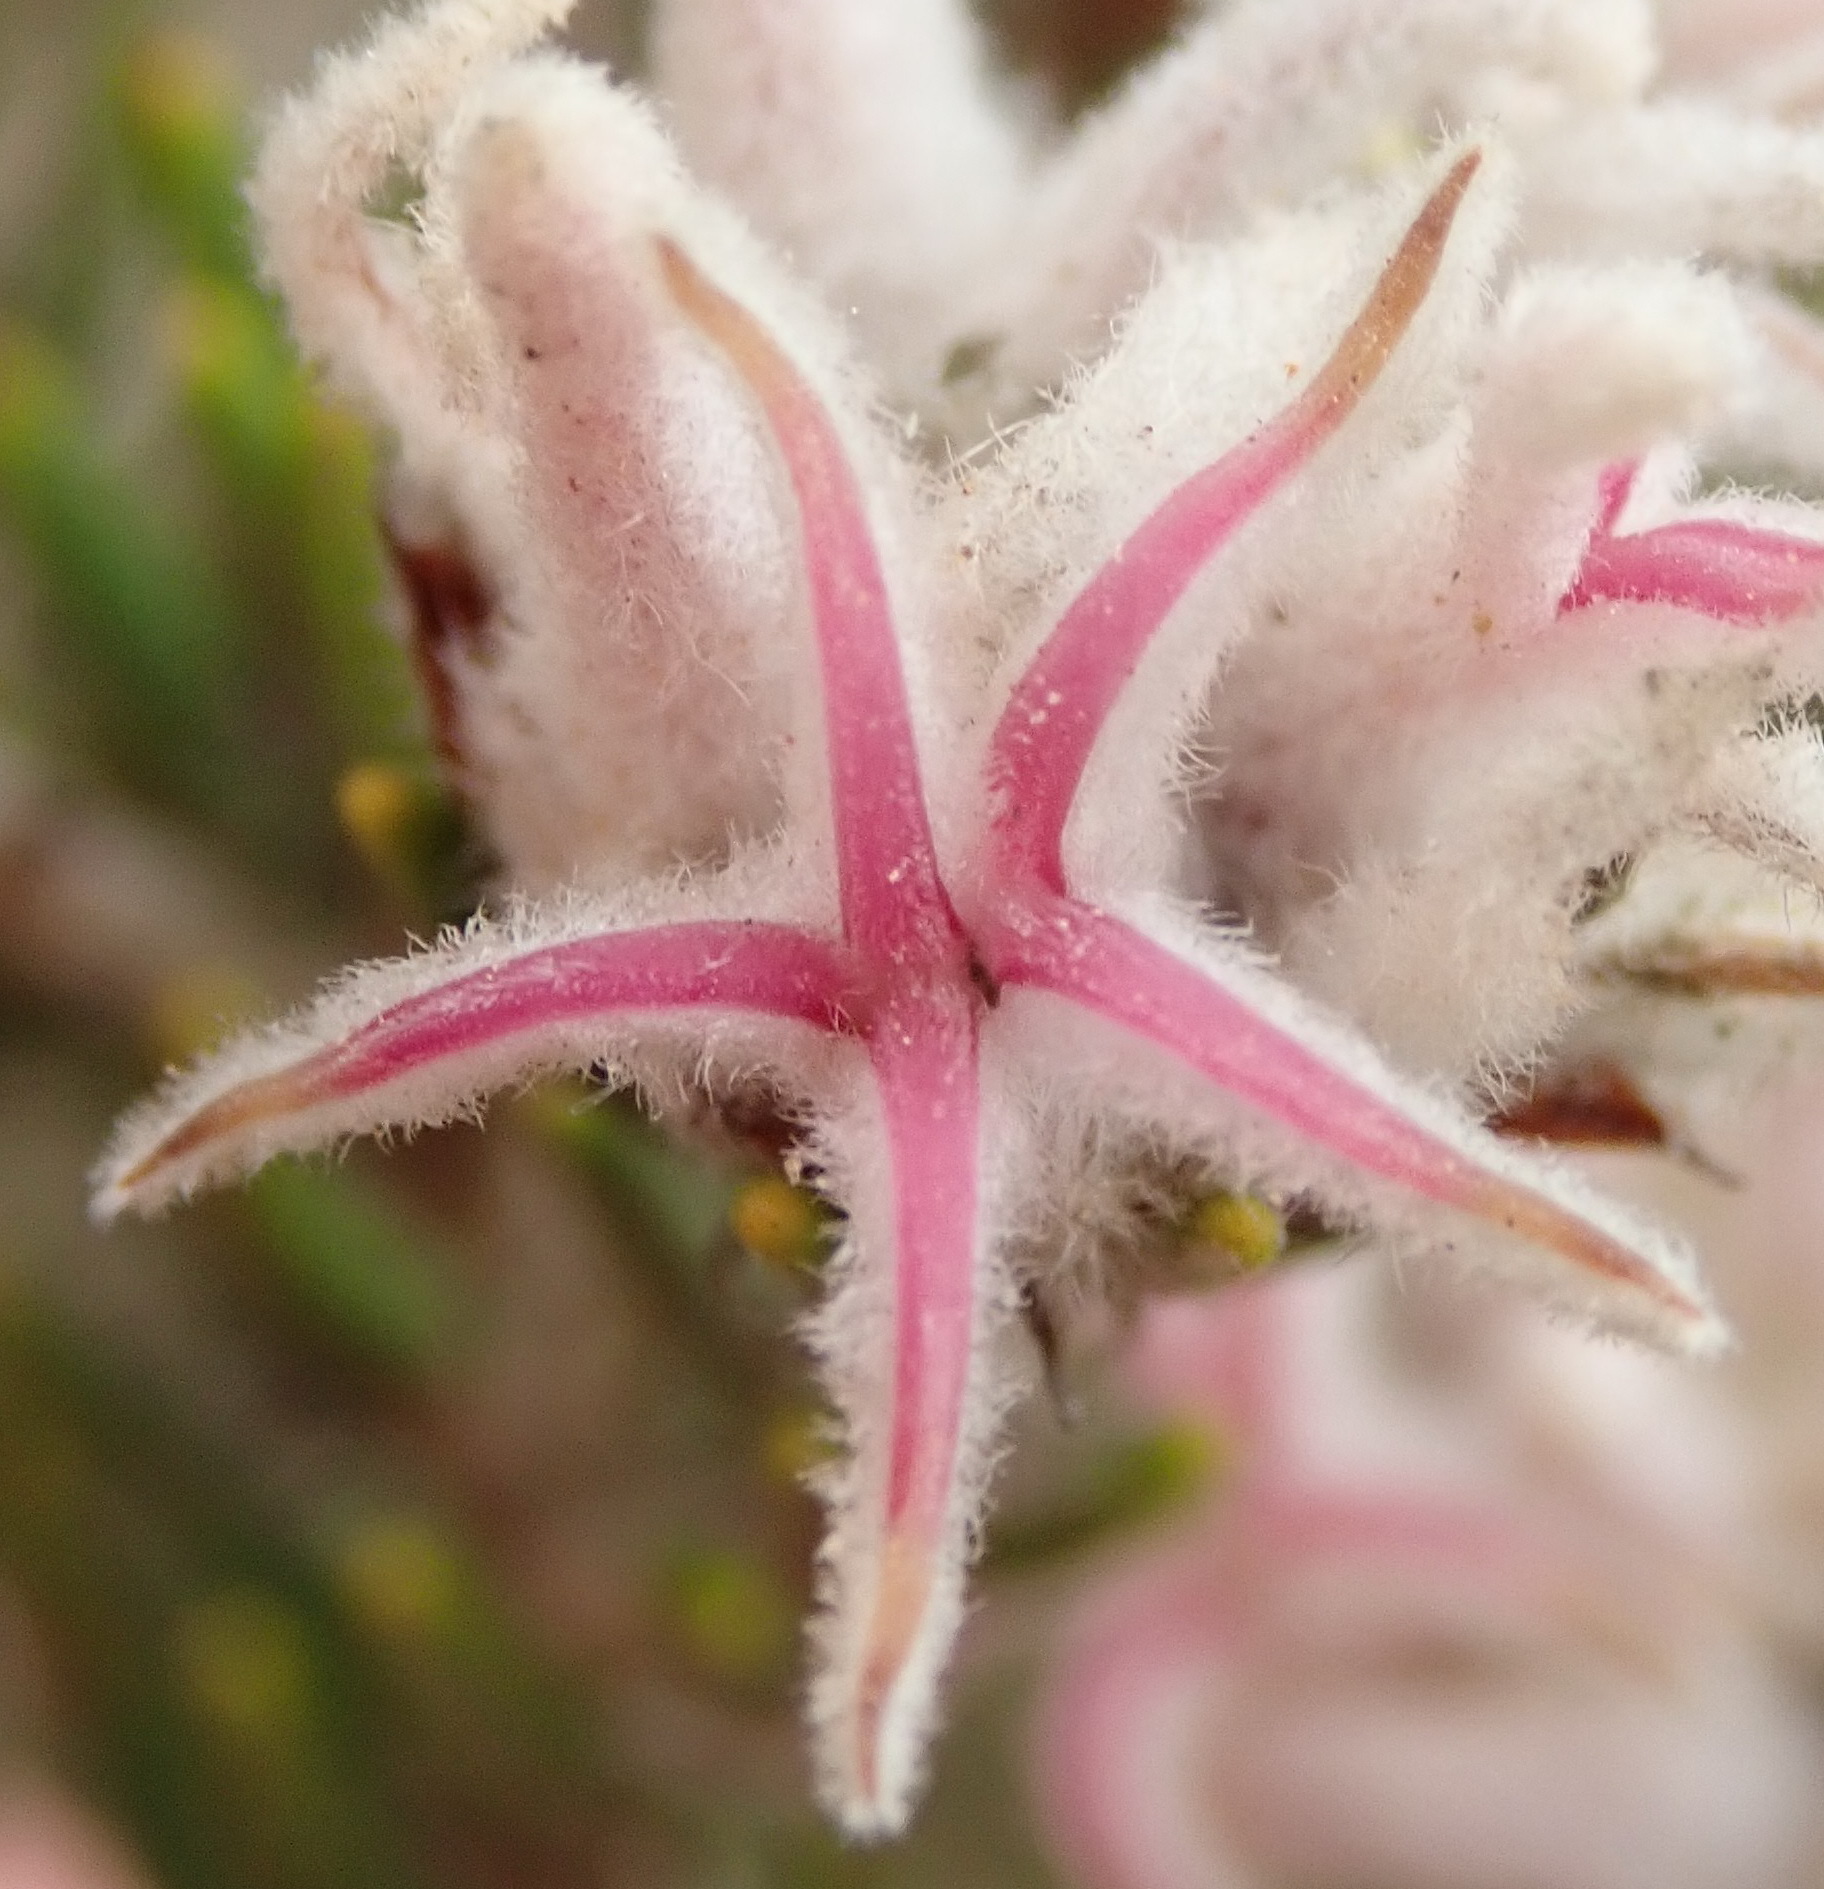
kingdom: Plantae
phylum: Tracheophyta
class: Magnoliopsida
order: Rosales
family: Rhamnaceae
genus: Trichocephalus
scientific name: Trichocephalus stipularis
